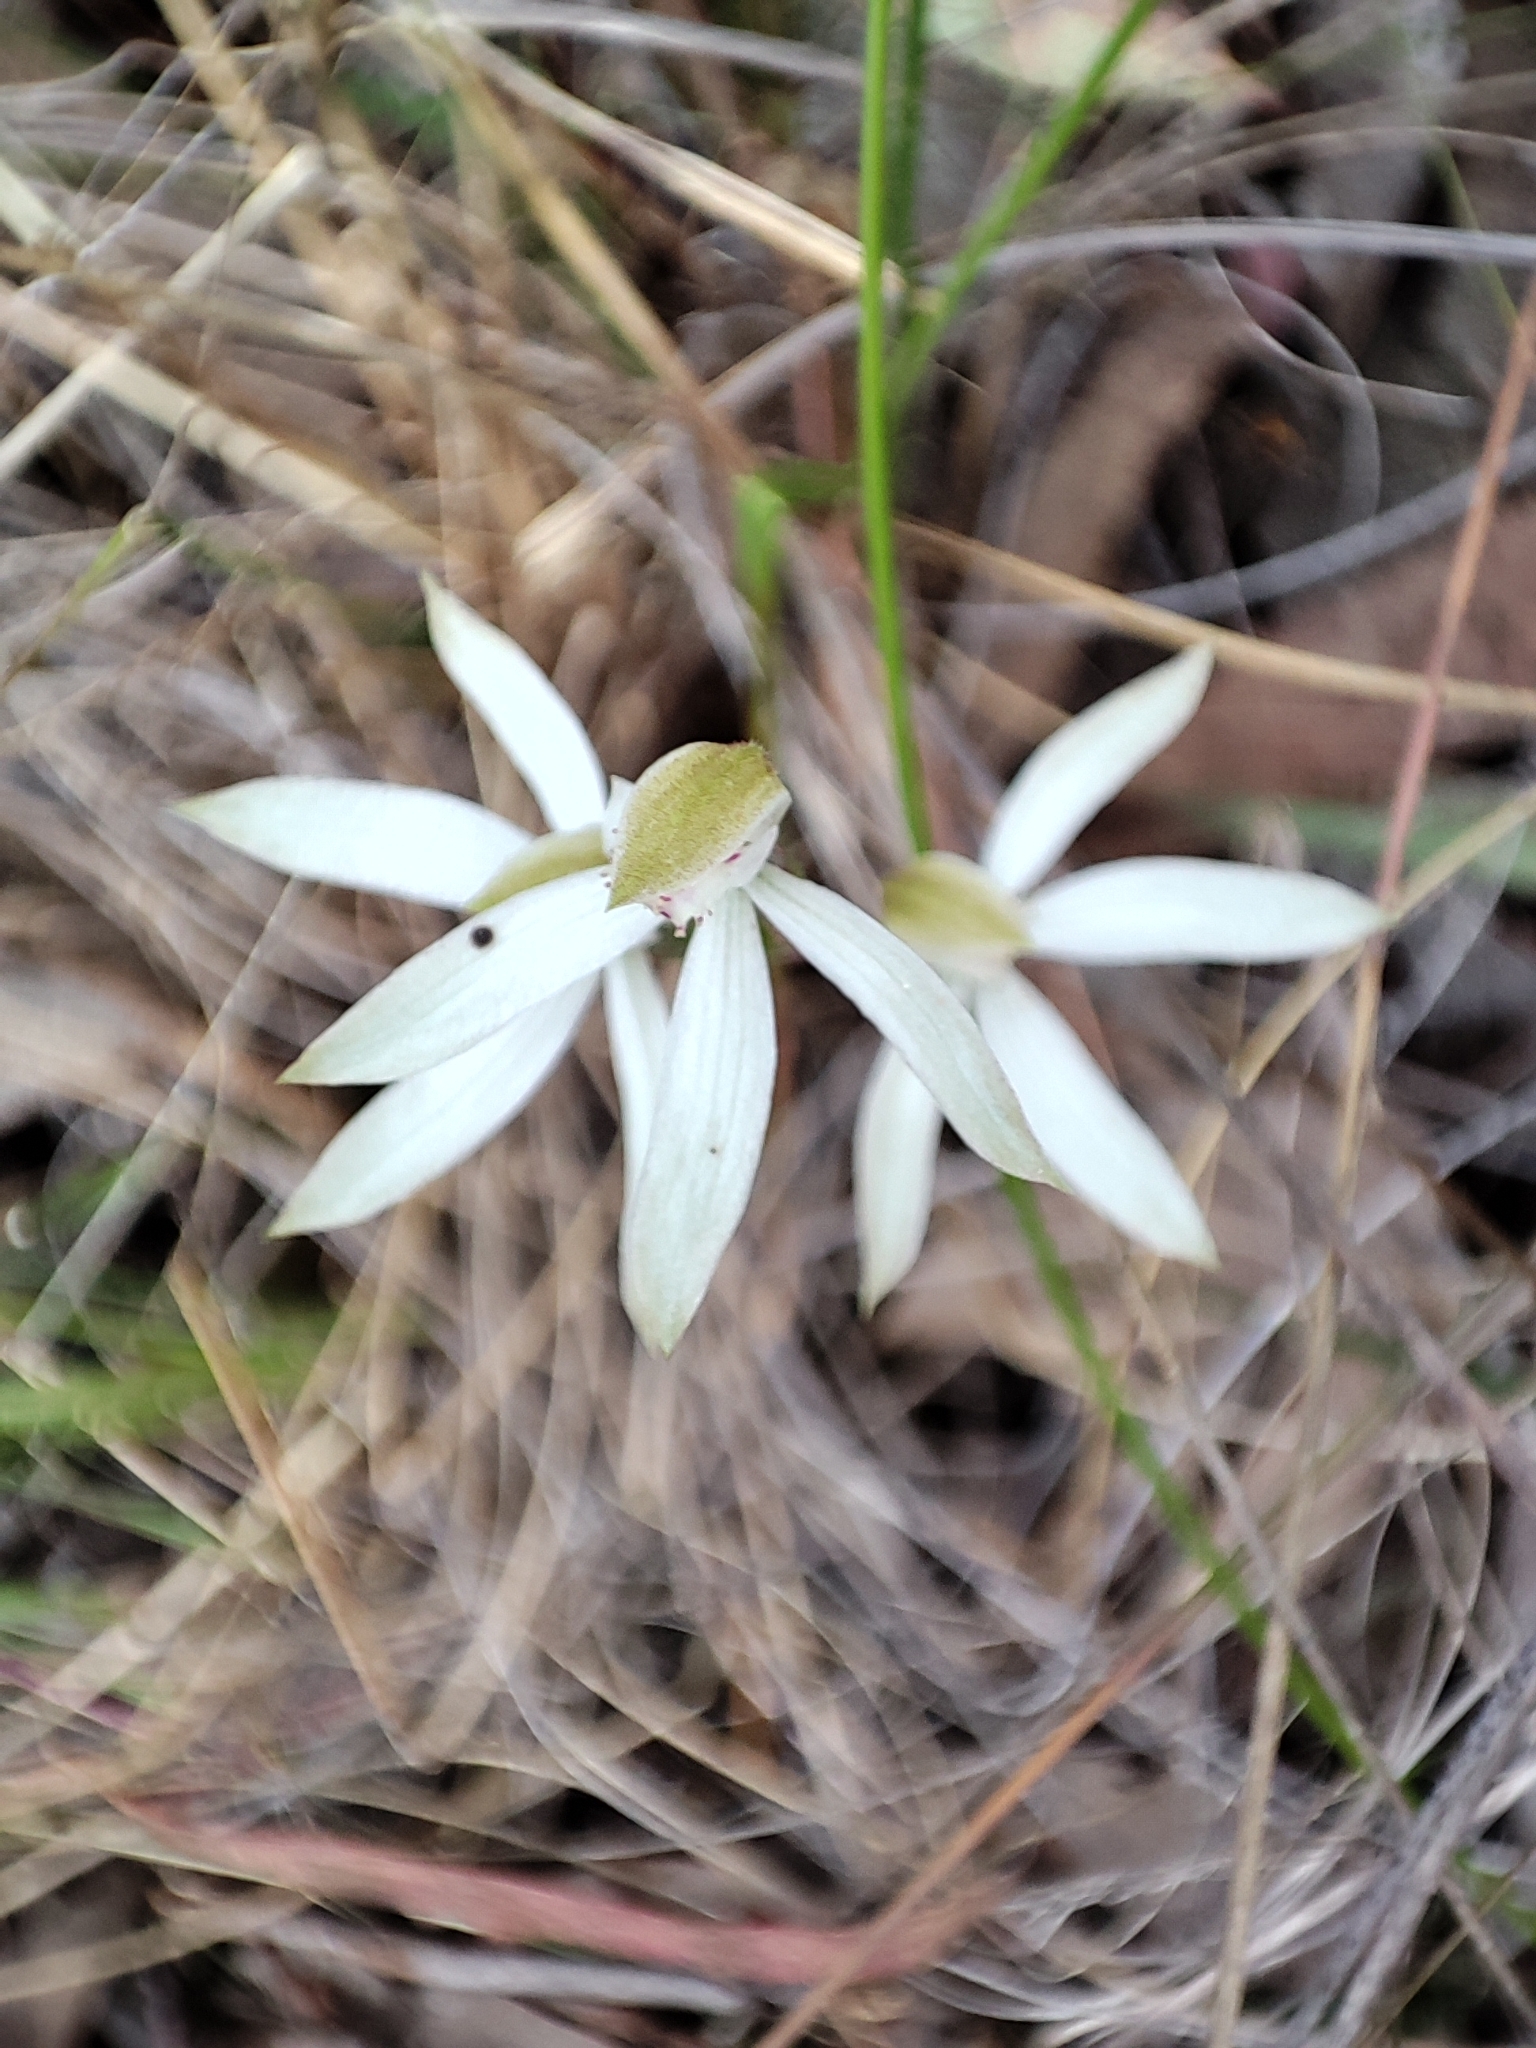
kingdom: Plantae
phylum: Tracheophyta
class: Liliopsida
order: Asparagales
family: Orchidaceae
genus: Caladenia
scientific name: Caladenia cucullata
